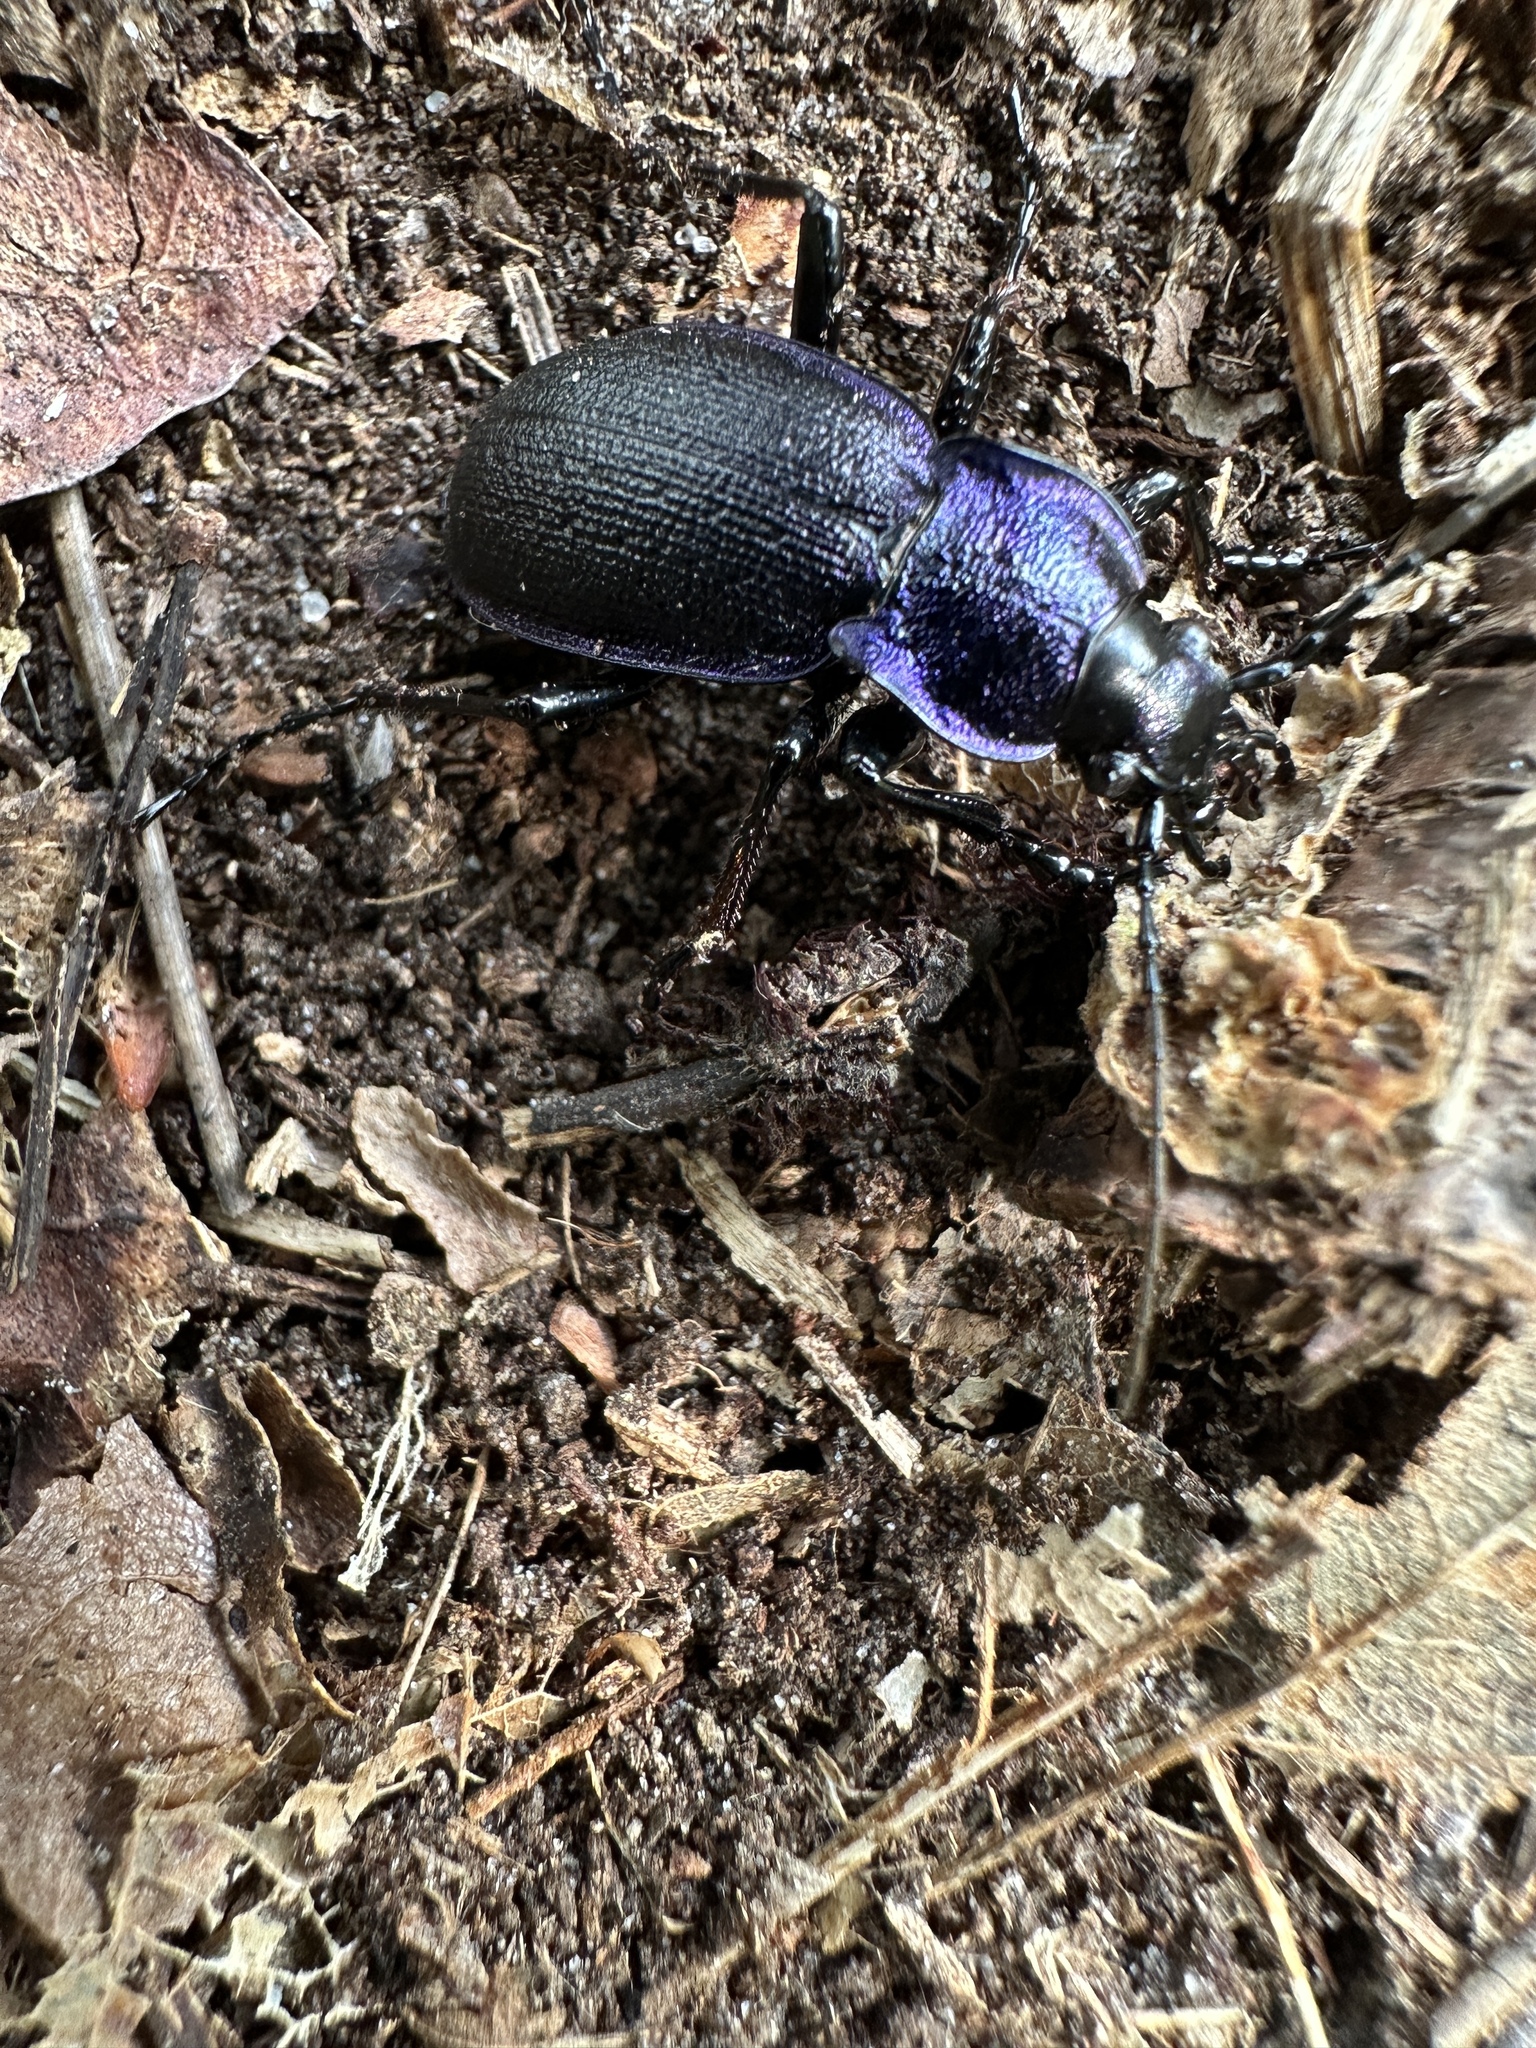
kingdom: Animalia
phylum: Arthropoda
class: Insecta
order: Coleoptera
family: Carabidae
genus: Carabus
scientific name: Carabus problematicus
